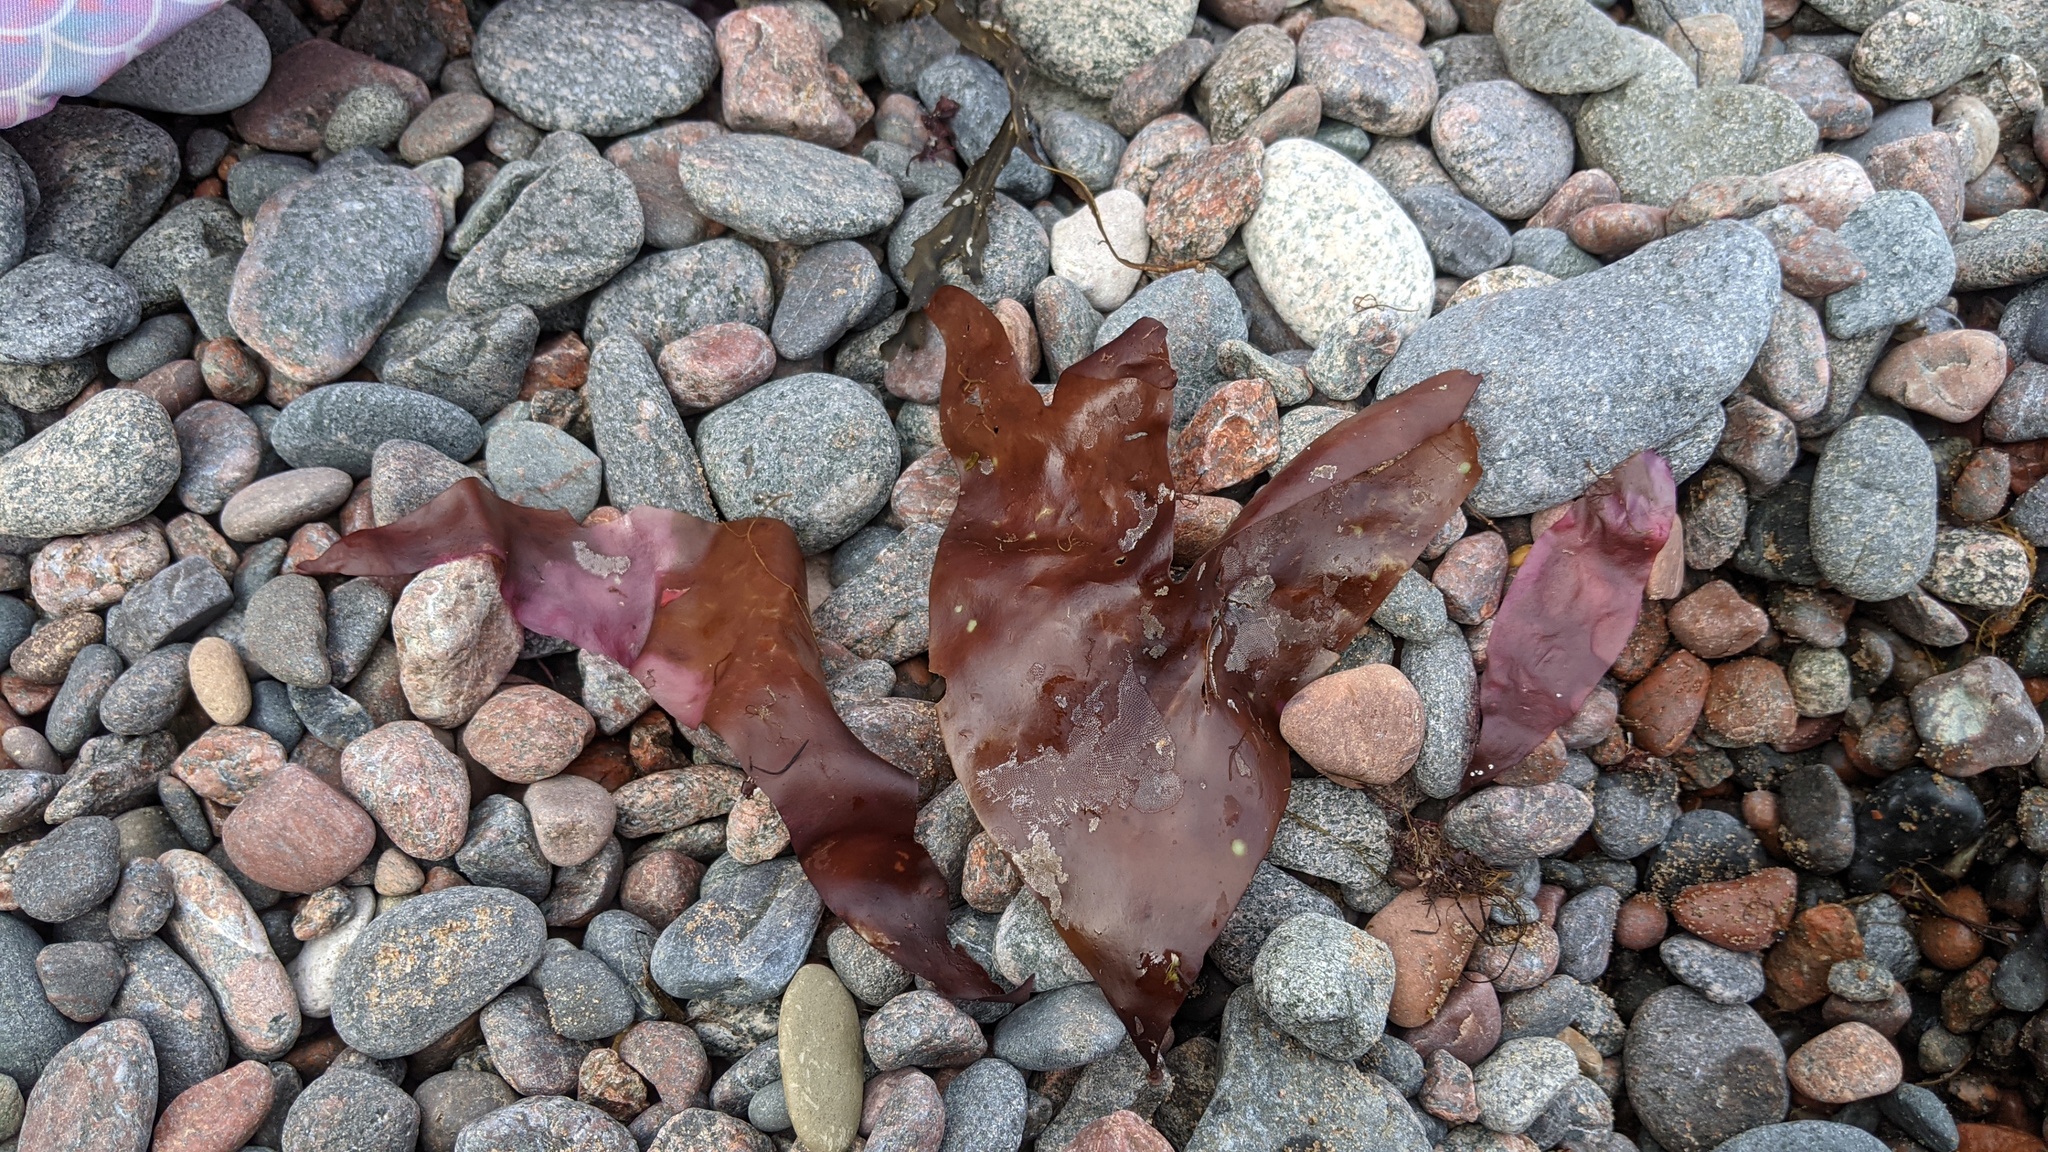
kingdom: Plantae
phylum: Rhodophyta
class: Florideophyceae
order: Palmariales
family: Palmariaceae
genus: Palmaria
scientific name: Palmaria palmata
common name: Dulse
